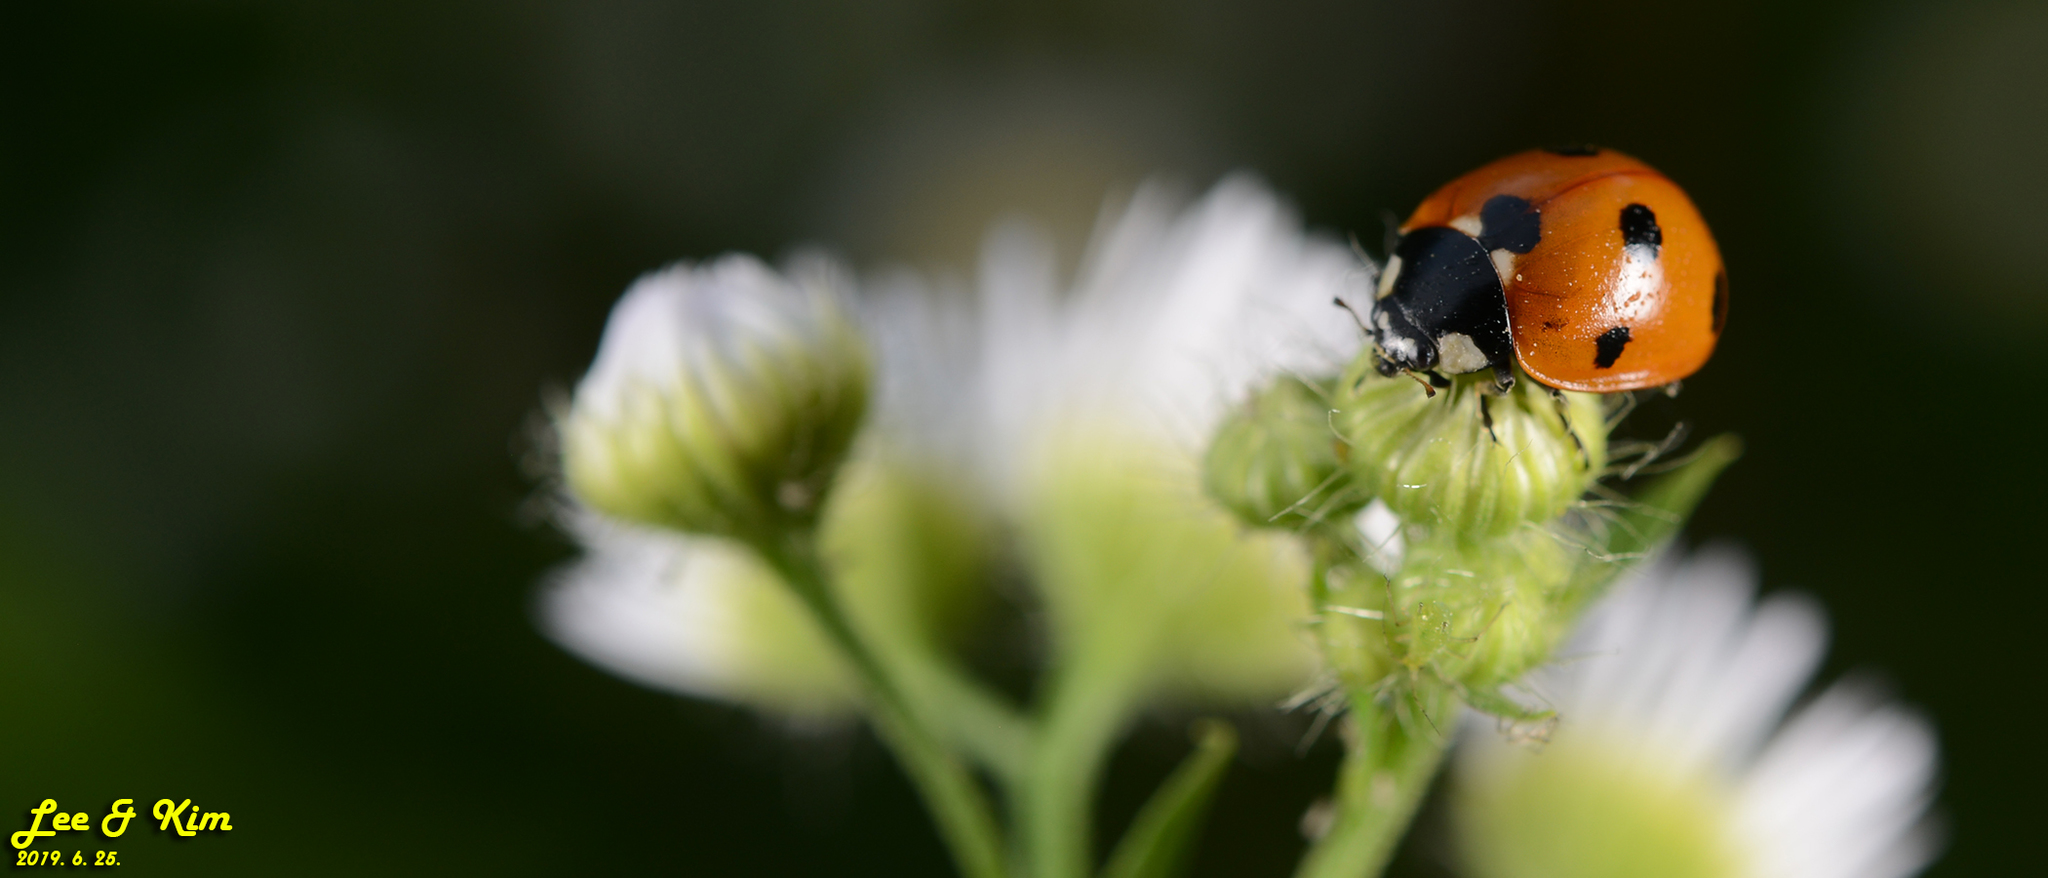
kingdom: Animalia
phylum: Arthropoda
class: Insecta
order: Coleoptera
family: Coccinellidae
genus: Coccinella
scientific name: Coccinella septempunctata
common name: Sevenspotted lady beetle
